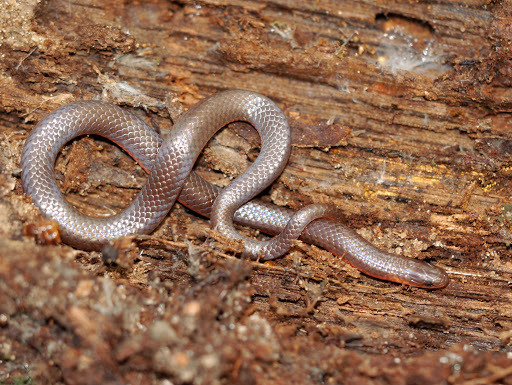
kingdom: Animalia
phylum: Chordata
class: Squamata
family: Colubridae
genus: Carphophis
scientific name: Carphophis amoenus
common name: Eastern worm snake
